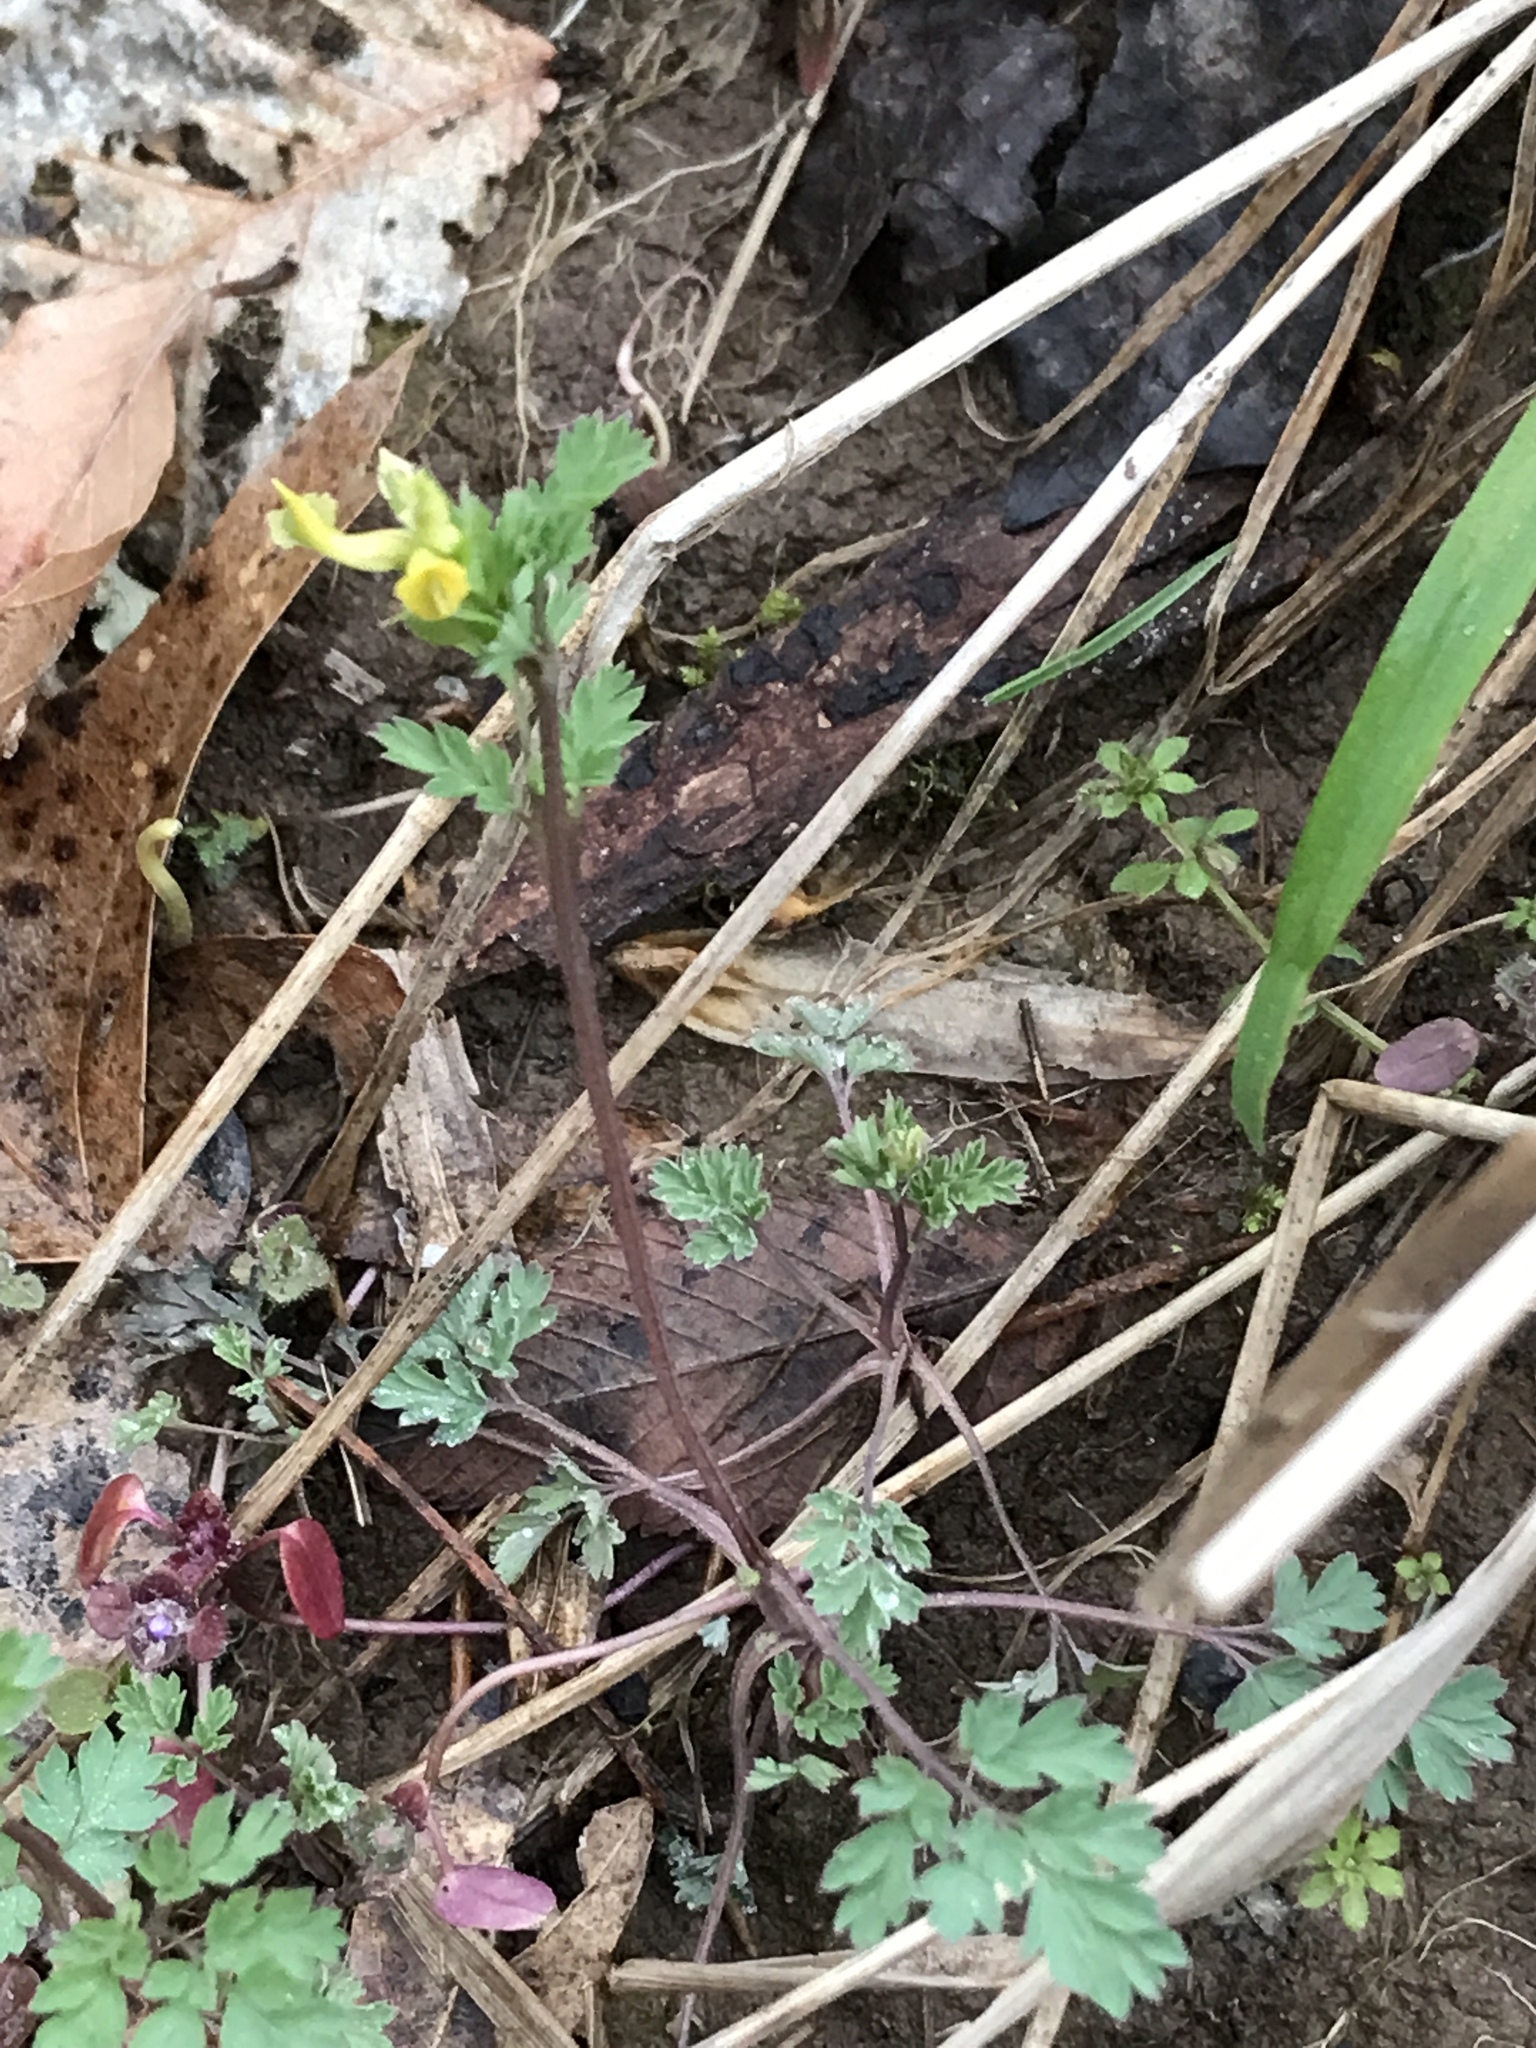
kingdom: Plantae
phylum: Tracheophyta
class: Magnoliopsida
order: Ranunculales
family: Papaveraceae
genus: Corydalis
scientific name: Corydalis flavula
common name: Yellow corydalis
